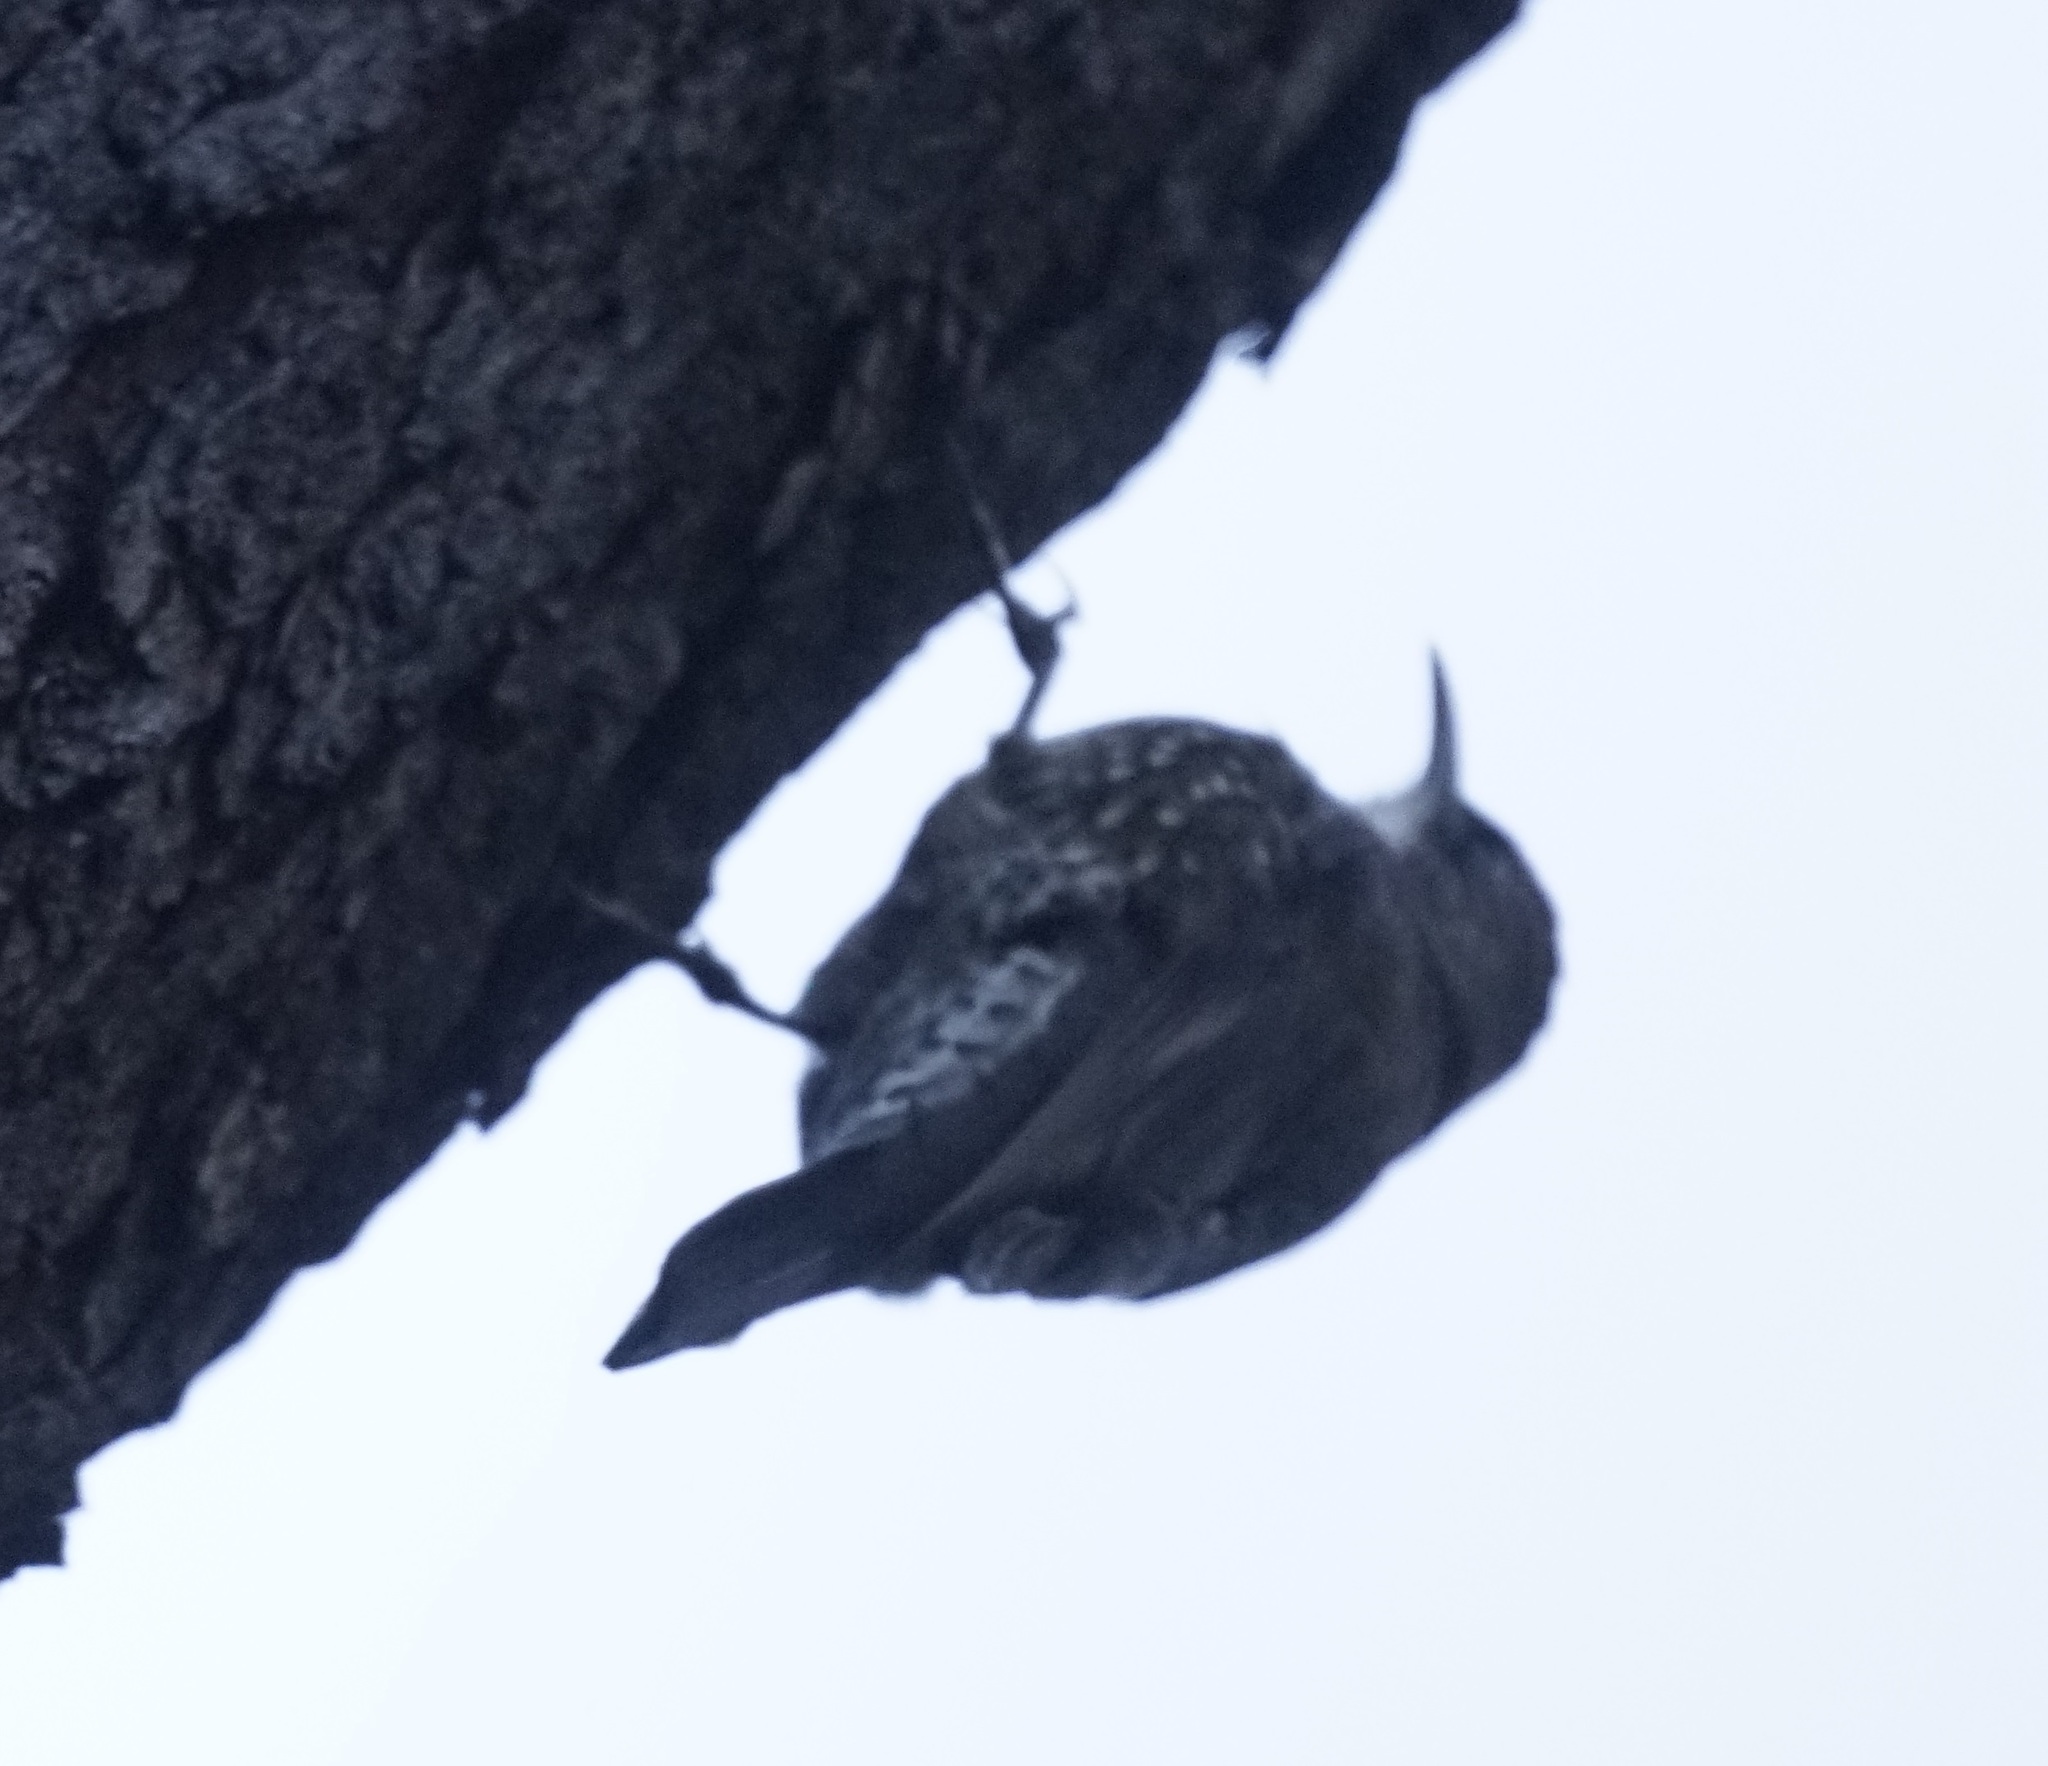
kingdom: Animalia
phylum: Chordata
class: Aves
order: Passeriformes
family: Climacteridae
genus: Cormobates
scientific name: Cormobates leucophaea
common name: White-throated treecreeper
